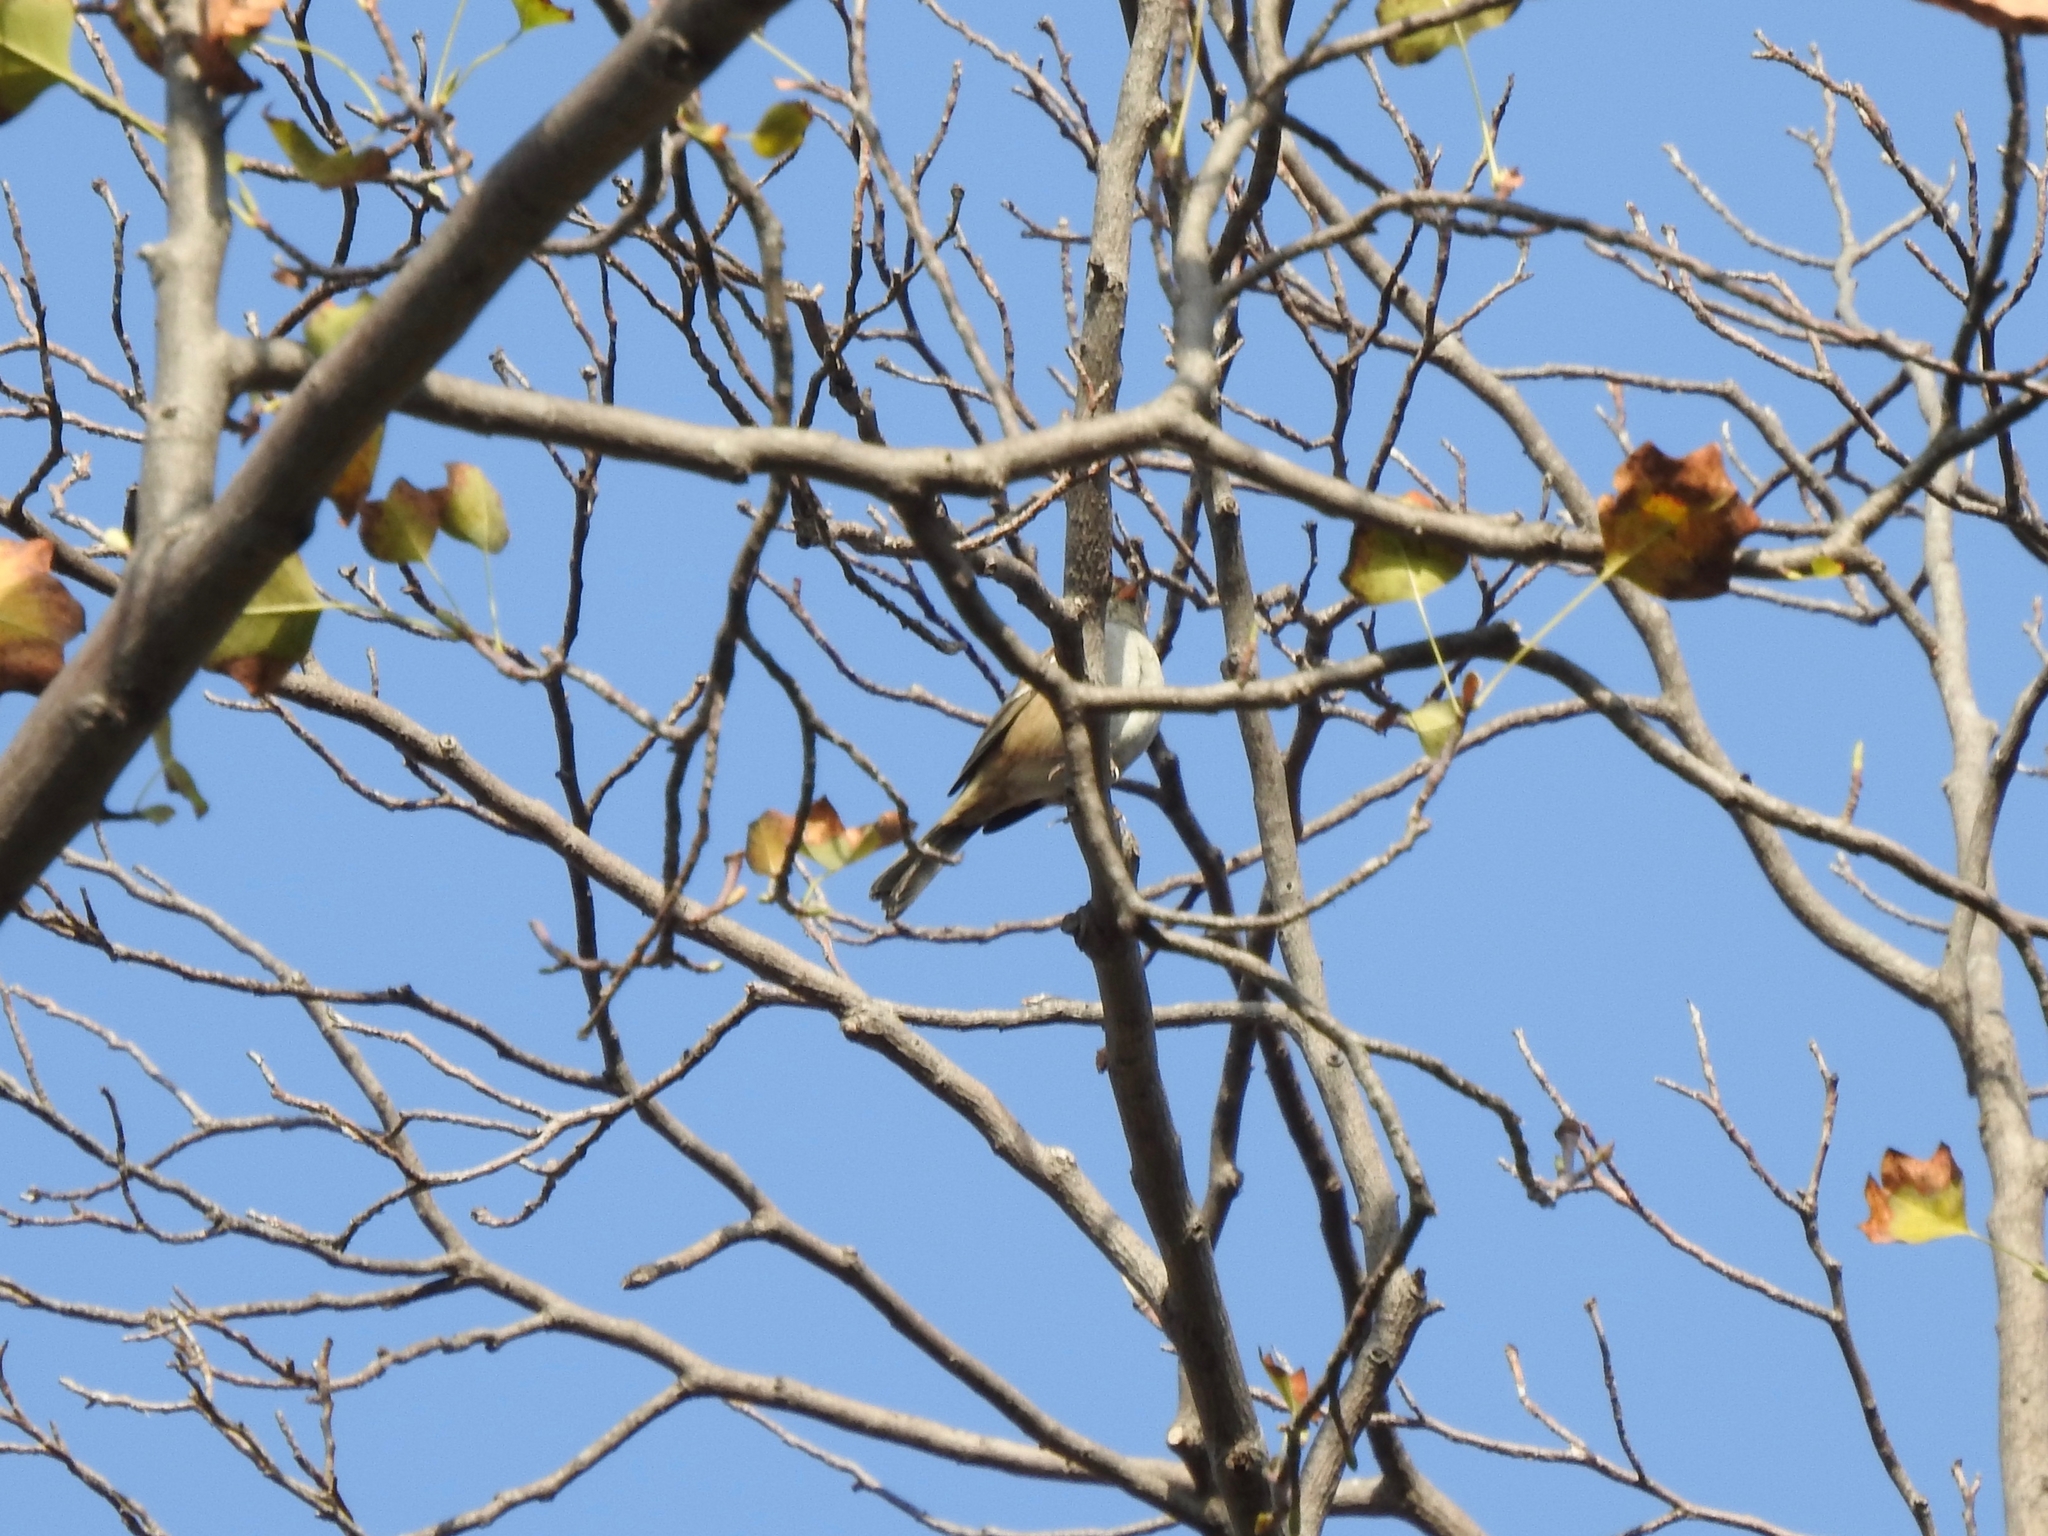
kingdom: Animalia
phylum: Chordata
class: Aves
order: Passeriformes
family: Passerellidae
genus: Zonotrichia
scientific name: Zonotrichia leucophrys
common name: White-crowned sparrow
